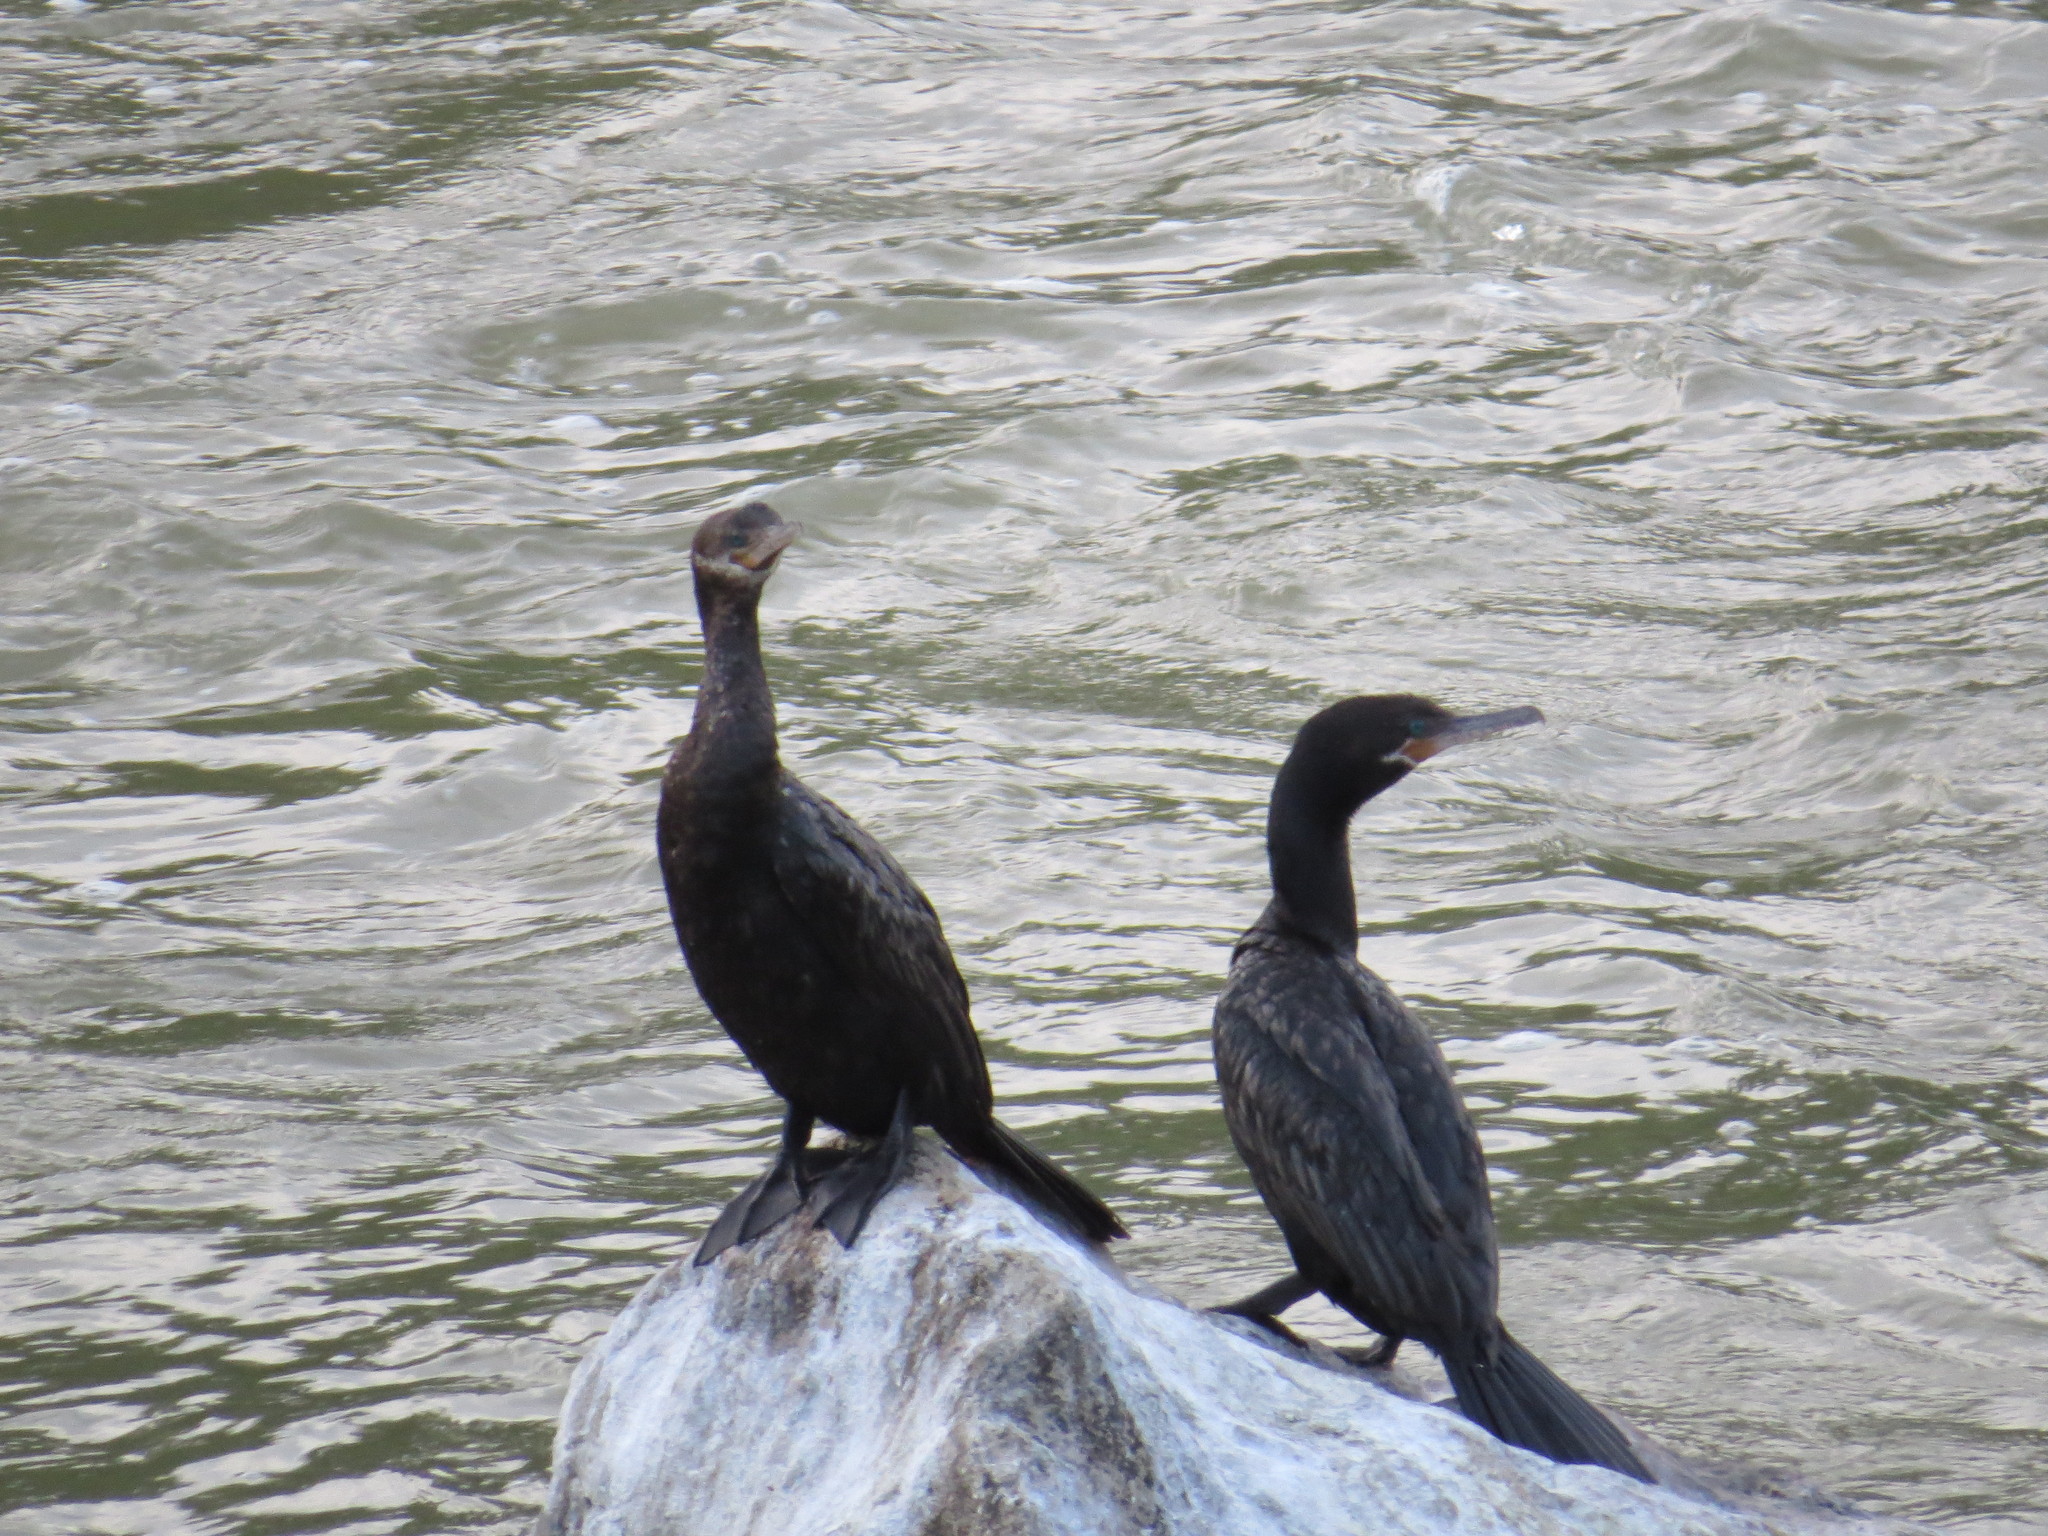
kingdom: Animalia
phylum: Chordata
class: Aves
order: Suliformes
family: Phalacrocoracidae
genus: Phalacrocorax
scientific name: Phalacrocorax brasilianus
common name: Neotropic cormorant
